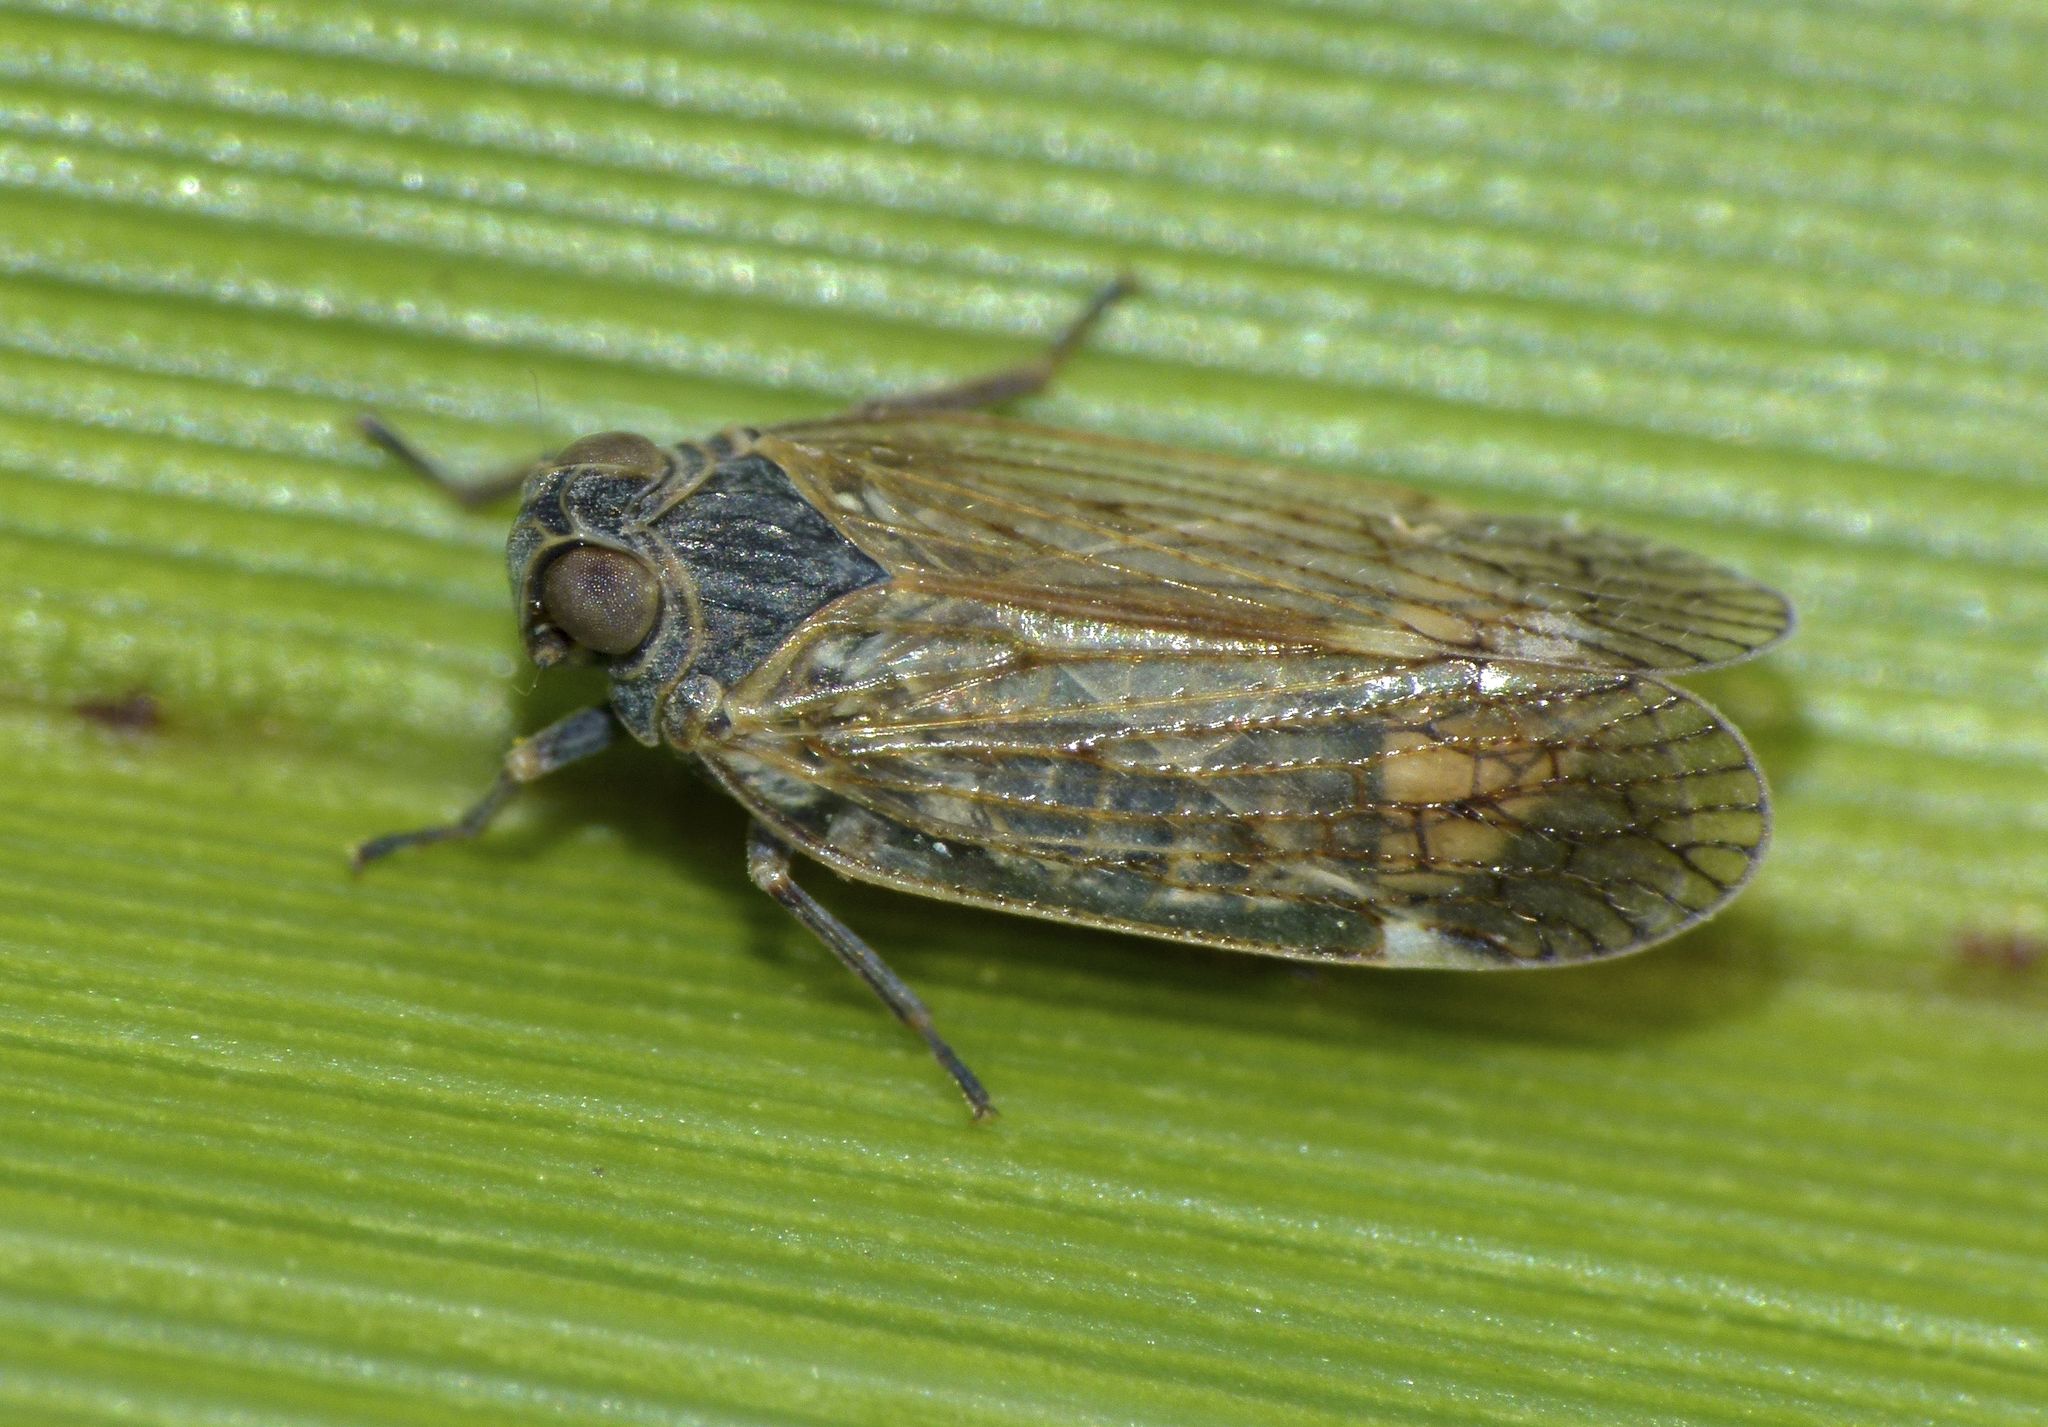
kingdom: Animalia
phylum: Arthropoda
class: Insecta
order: Hemiptera
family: Cixiidae
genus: Zeoliarus
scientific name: Zeoliarus oppositus
